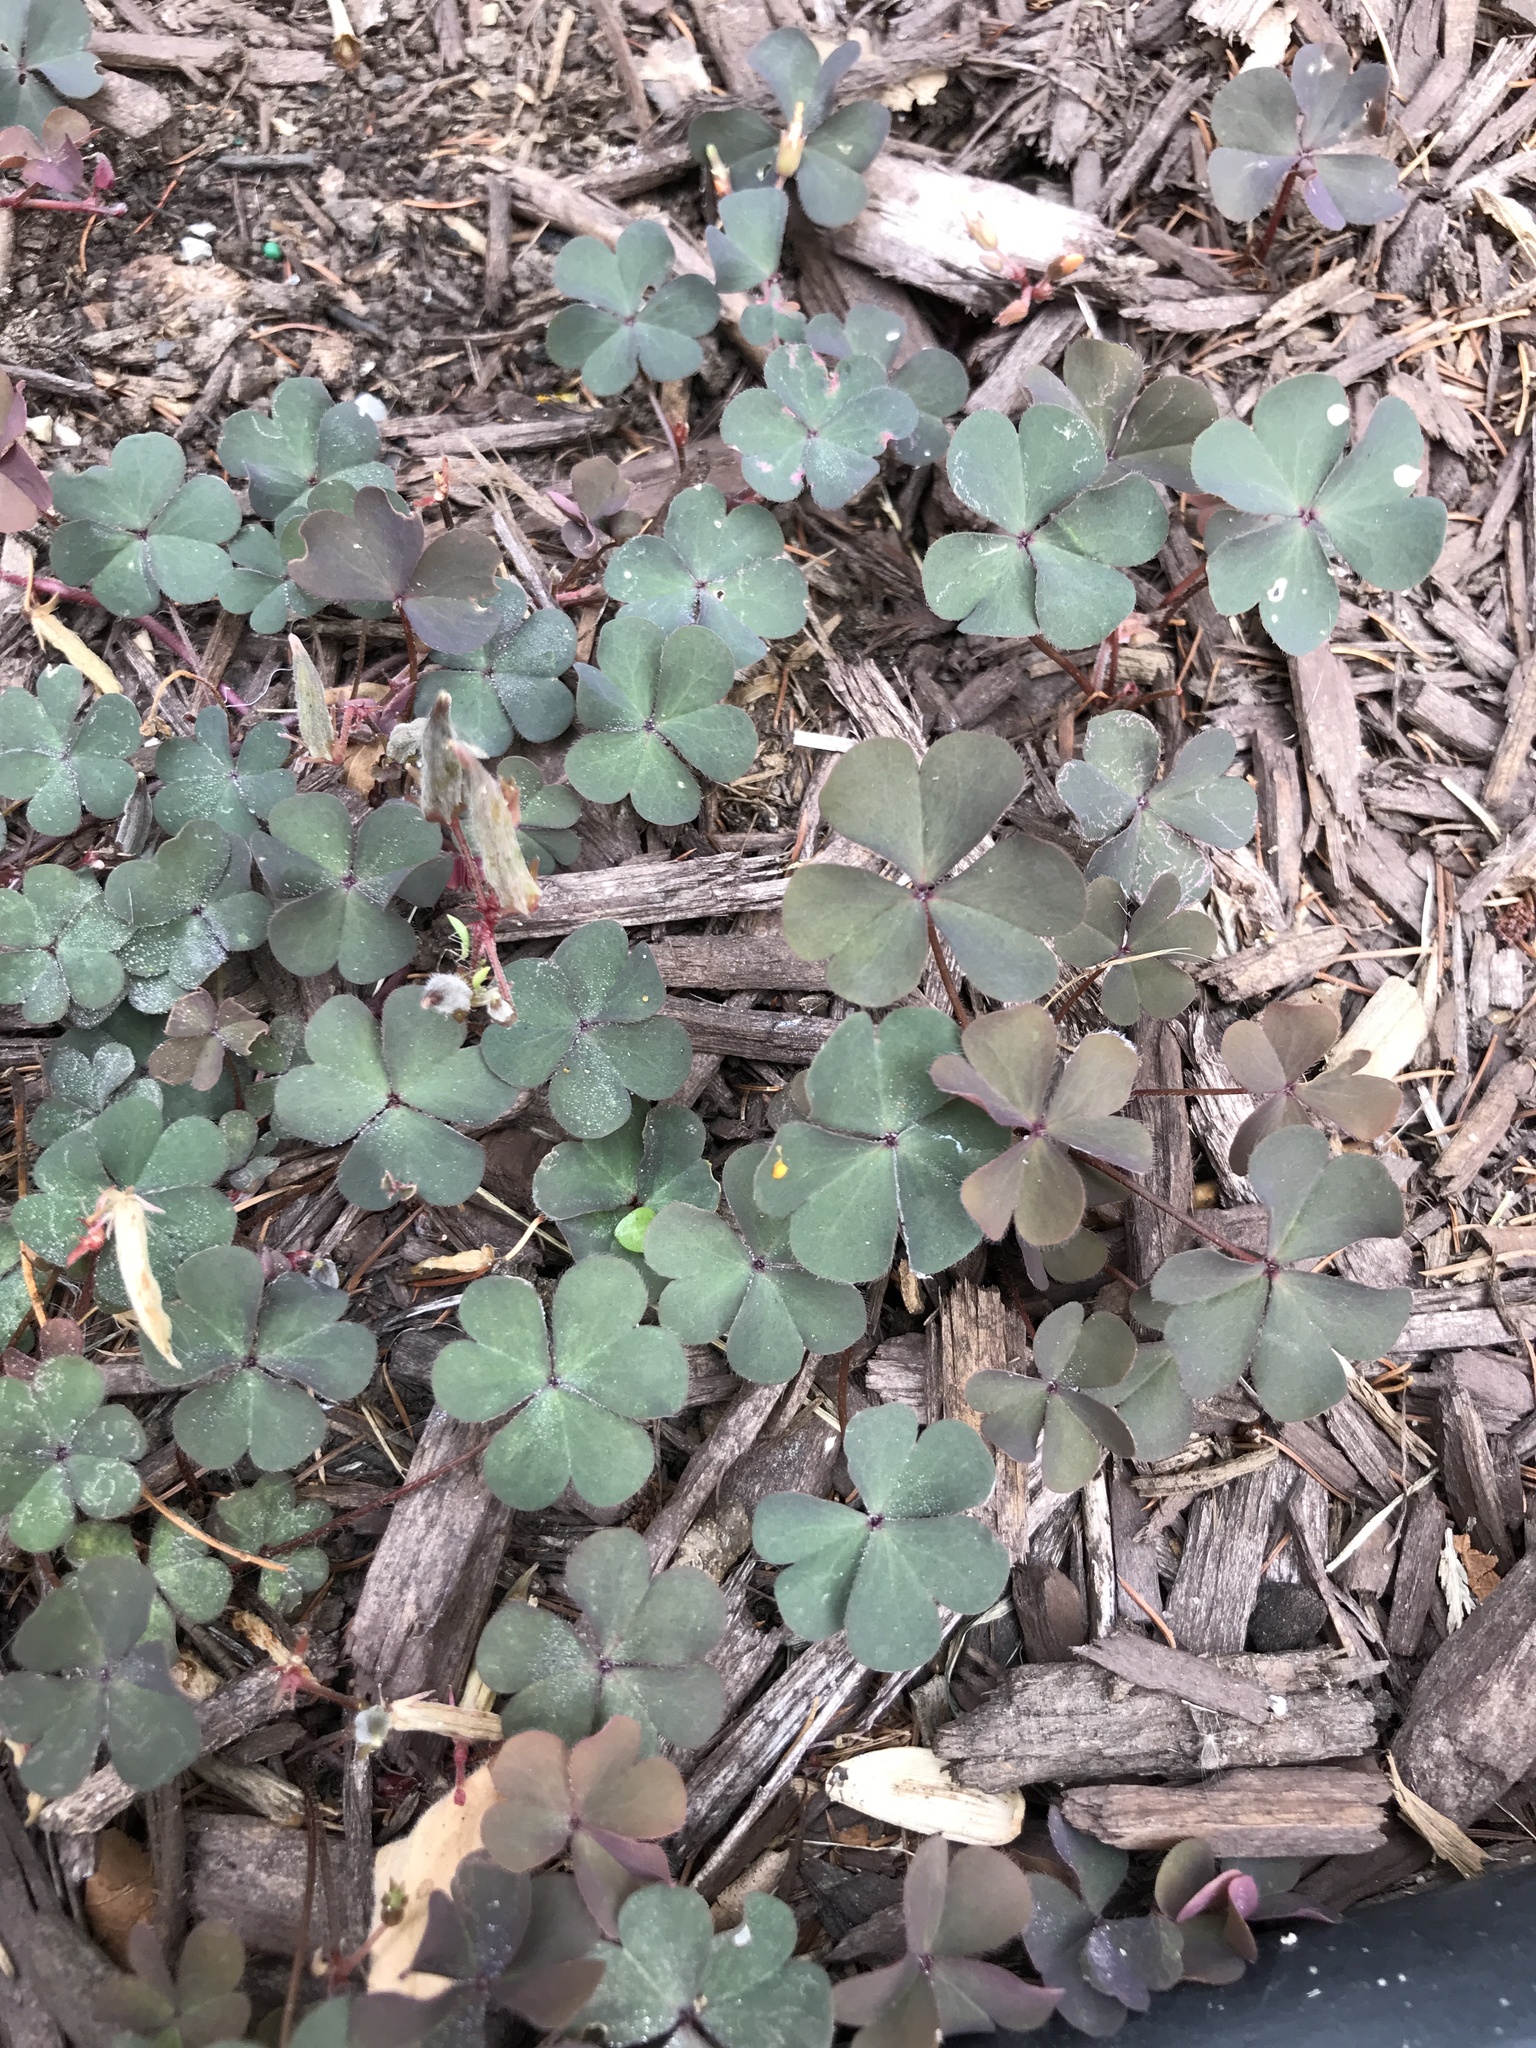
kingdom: Plantae
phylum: Tracheophyta
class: Magnoliopsida
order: Oxalidales
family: Oxalidaceae
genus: Oxalis
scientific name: Oxalis corniculata
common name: Procumbent yellow-sorrel
